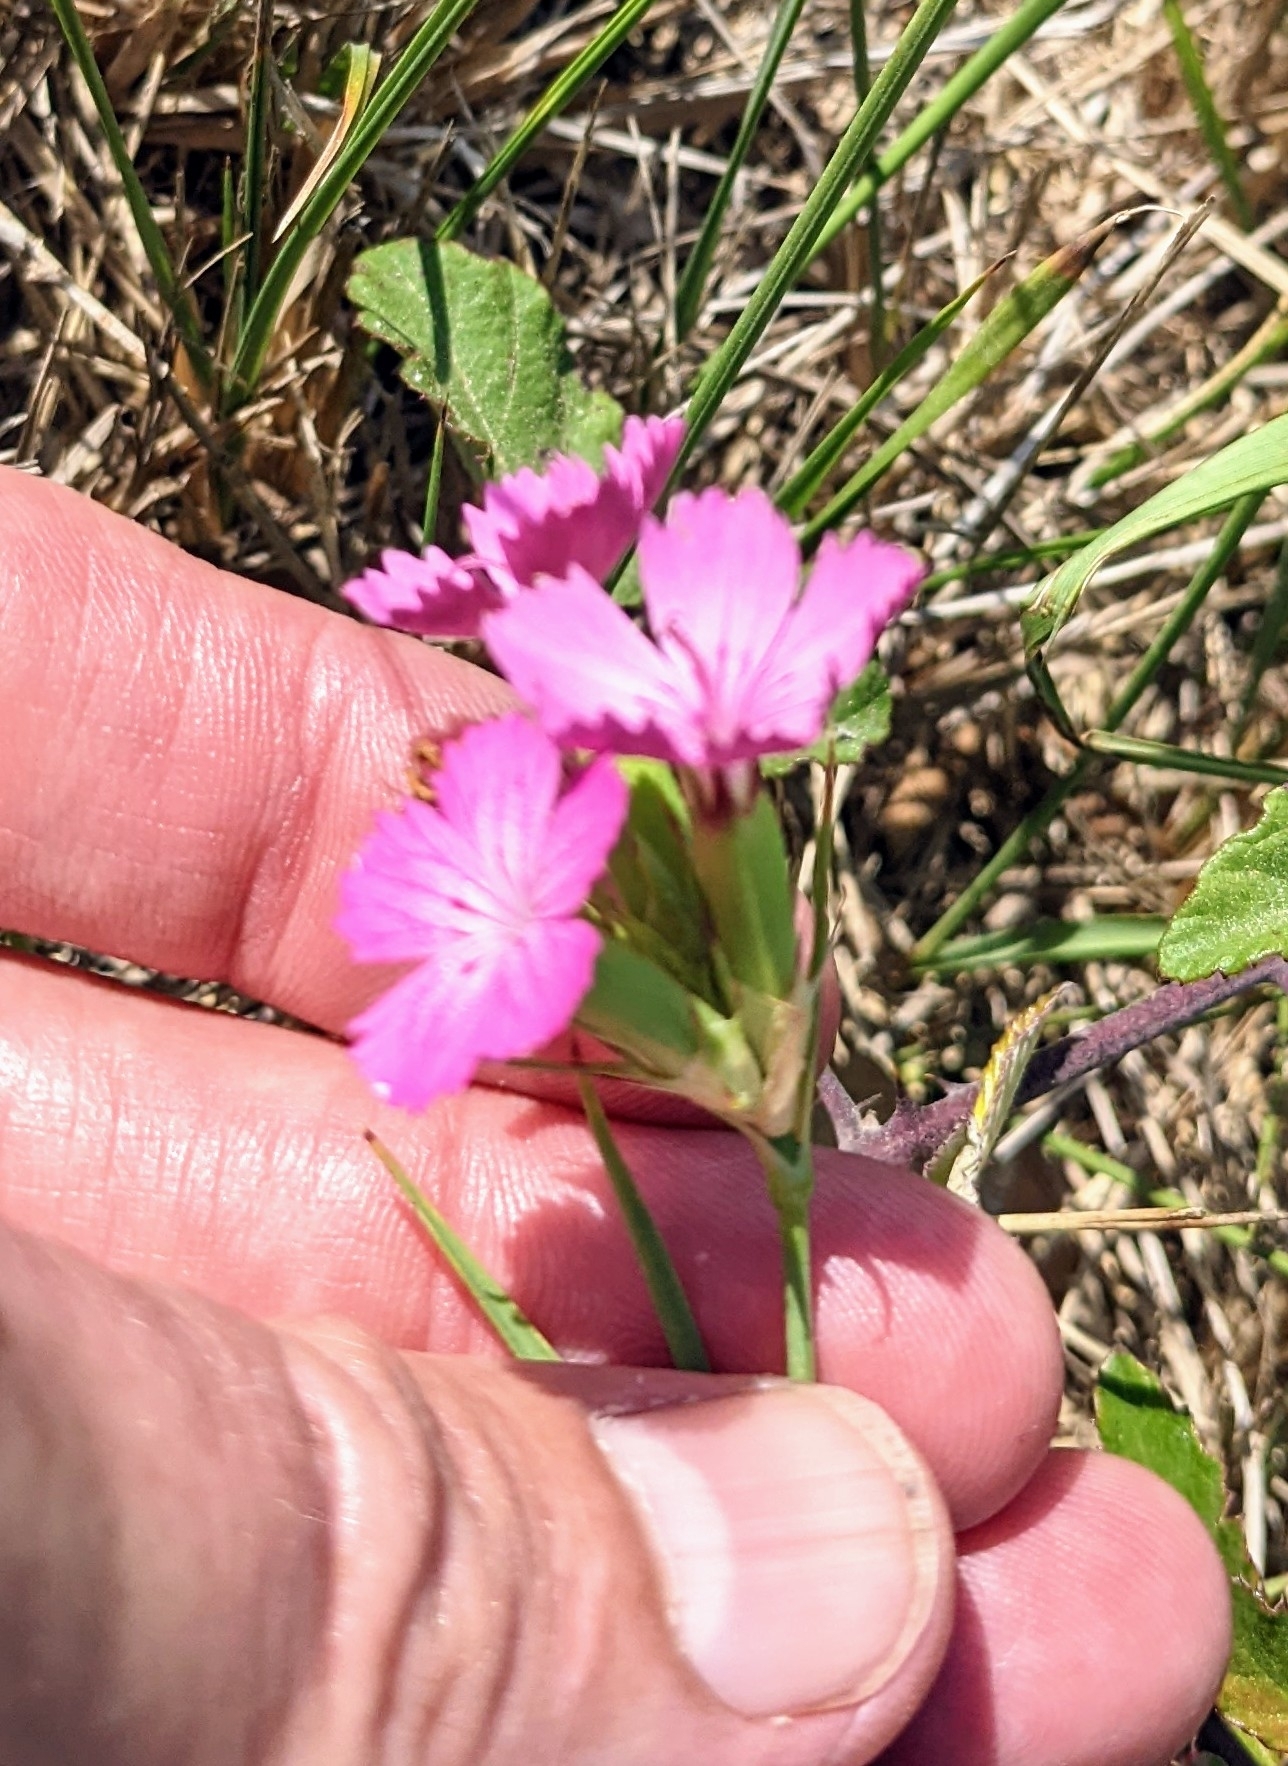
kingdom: Plantae
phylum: Tracheophyta
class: Magnoliopsida
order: Caryophyllales
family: Caryophyllaceae
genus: Dianthus
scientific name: Dianthus balbisii
